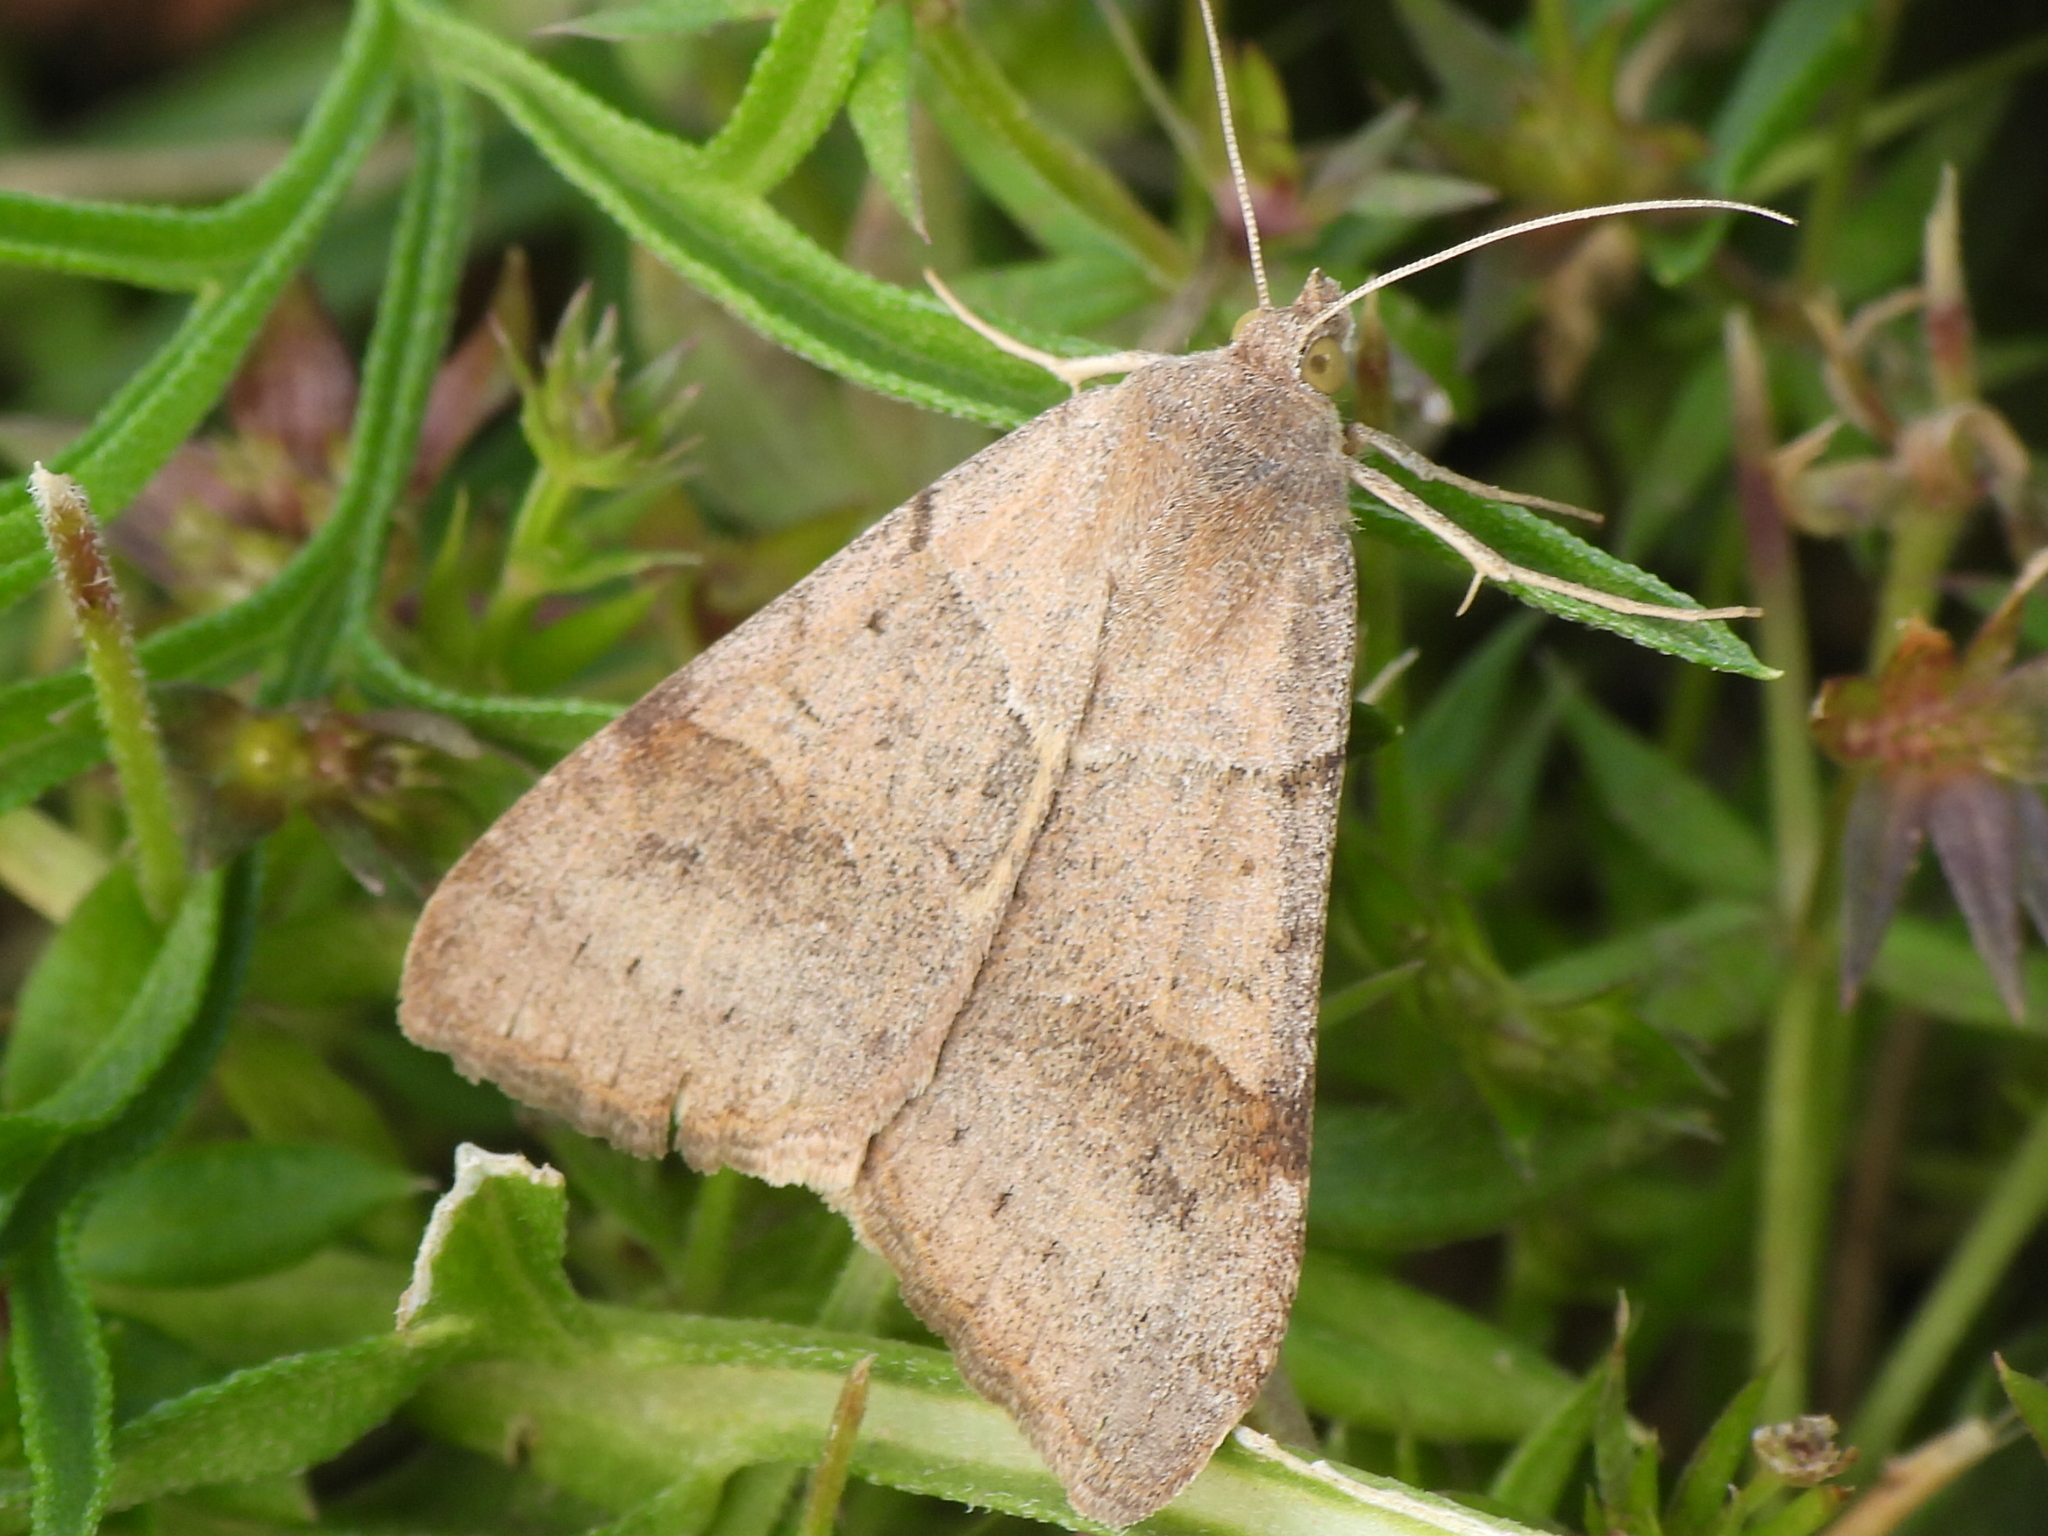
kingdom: Animalia
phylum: Arthropoda
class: Insecta
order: Lepidoptera
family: Erebidae
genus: Caenurgina
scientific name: Caenurgina erechtea
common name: Forage looper moth
